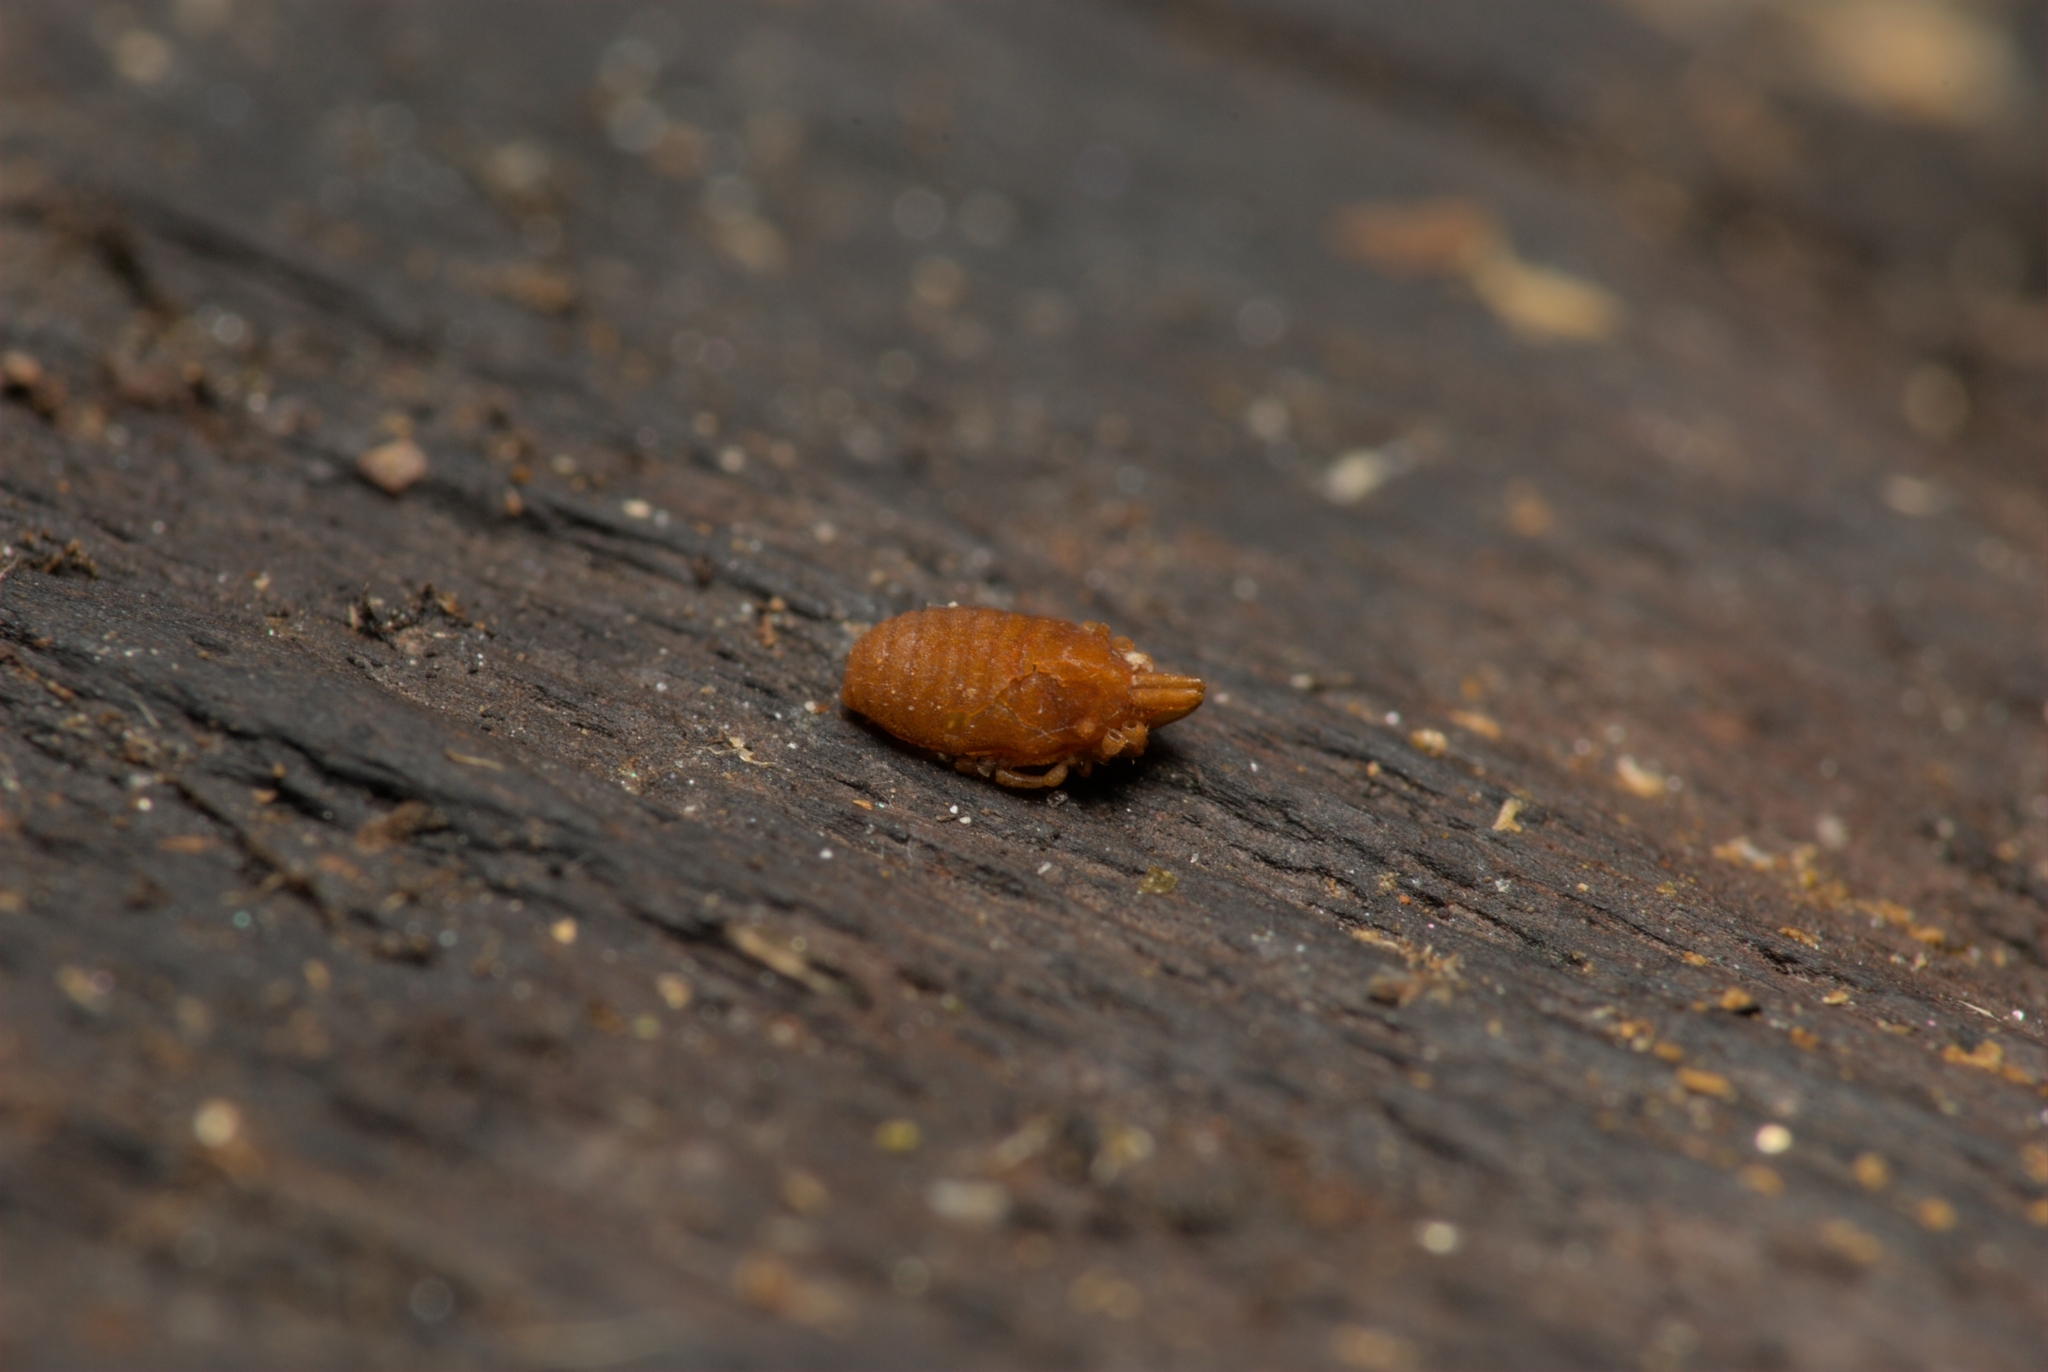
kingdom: Animalia
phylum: Arthropoda
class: Arachnida
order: Opiliones
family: Sironidae
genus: Siro
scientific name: Siro rubens
